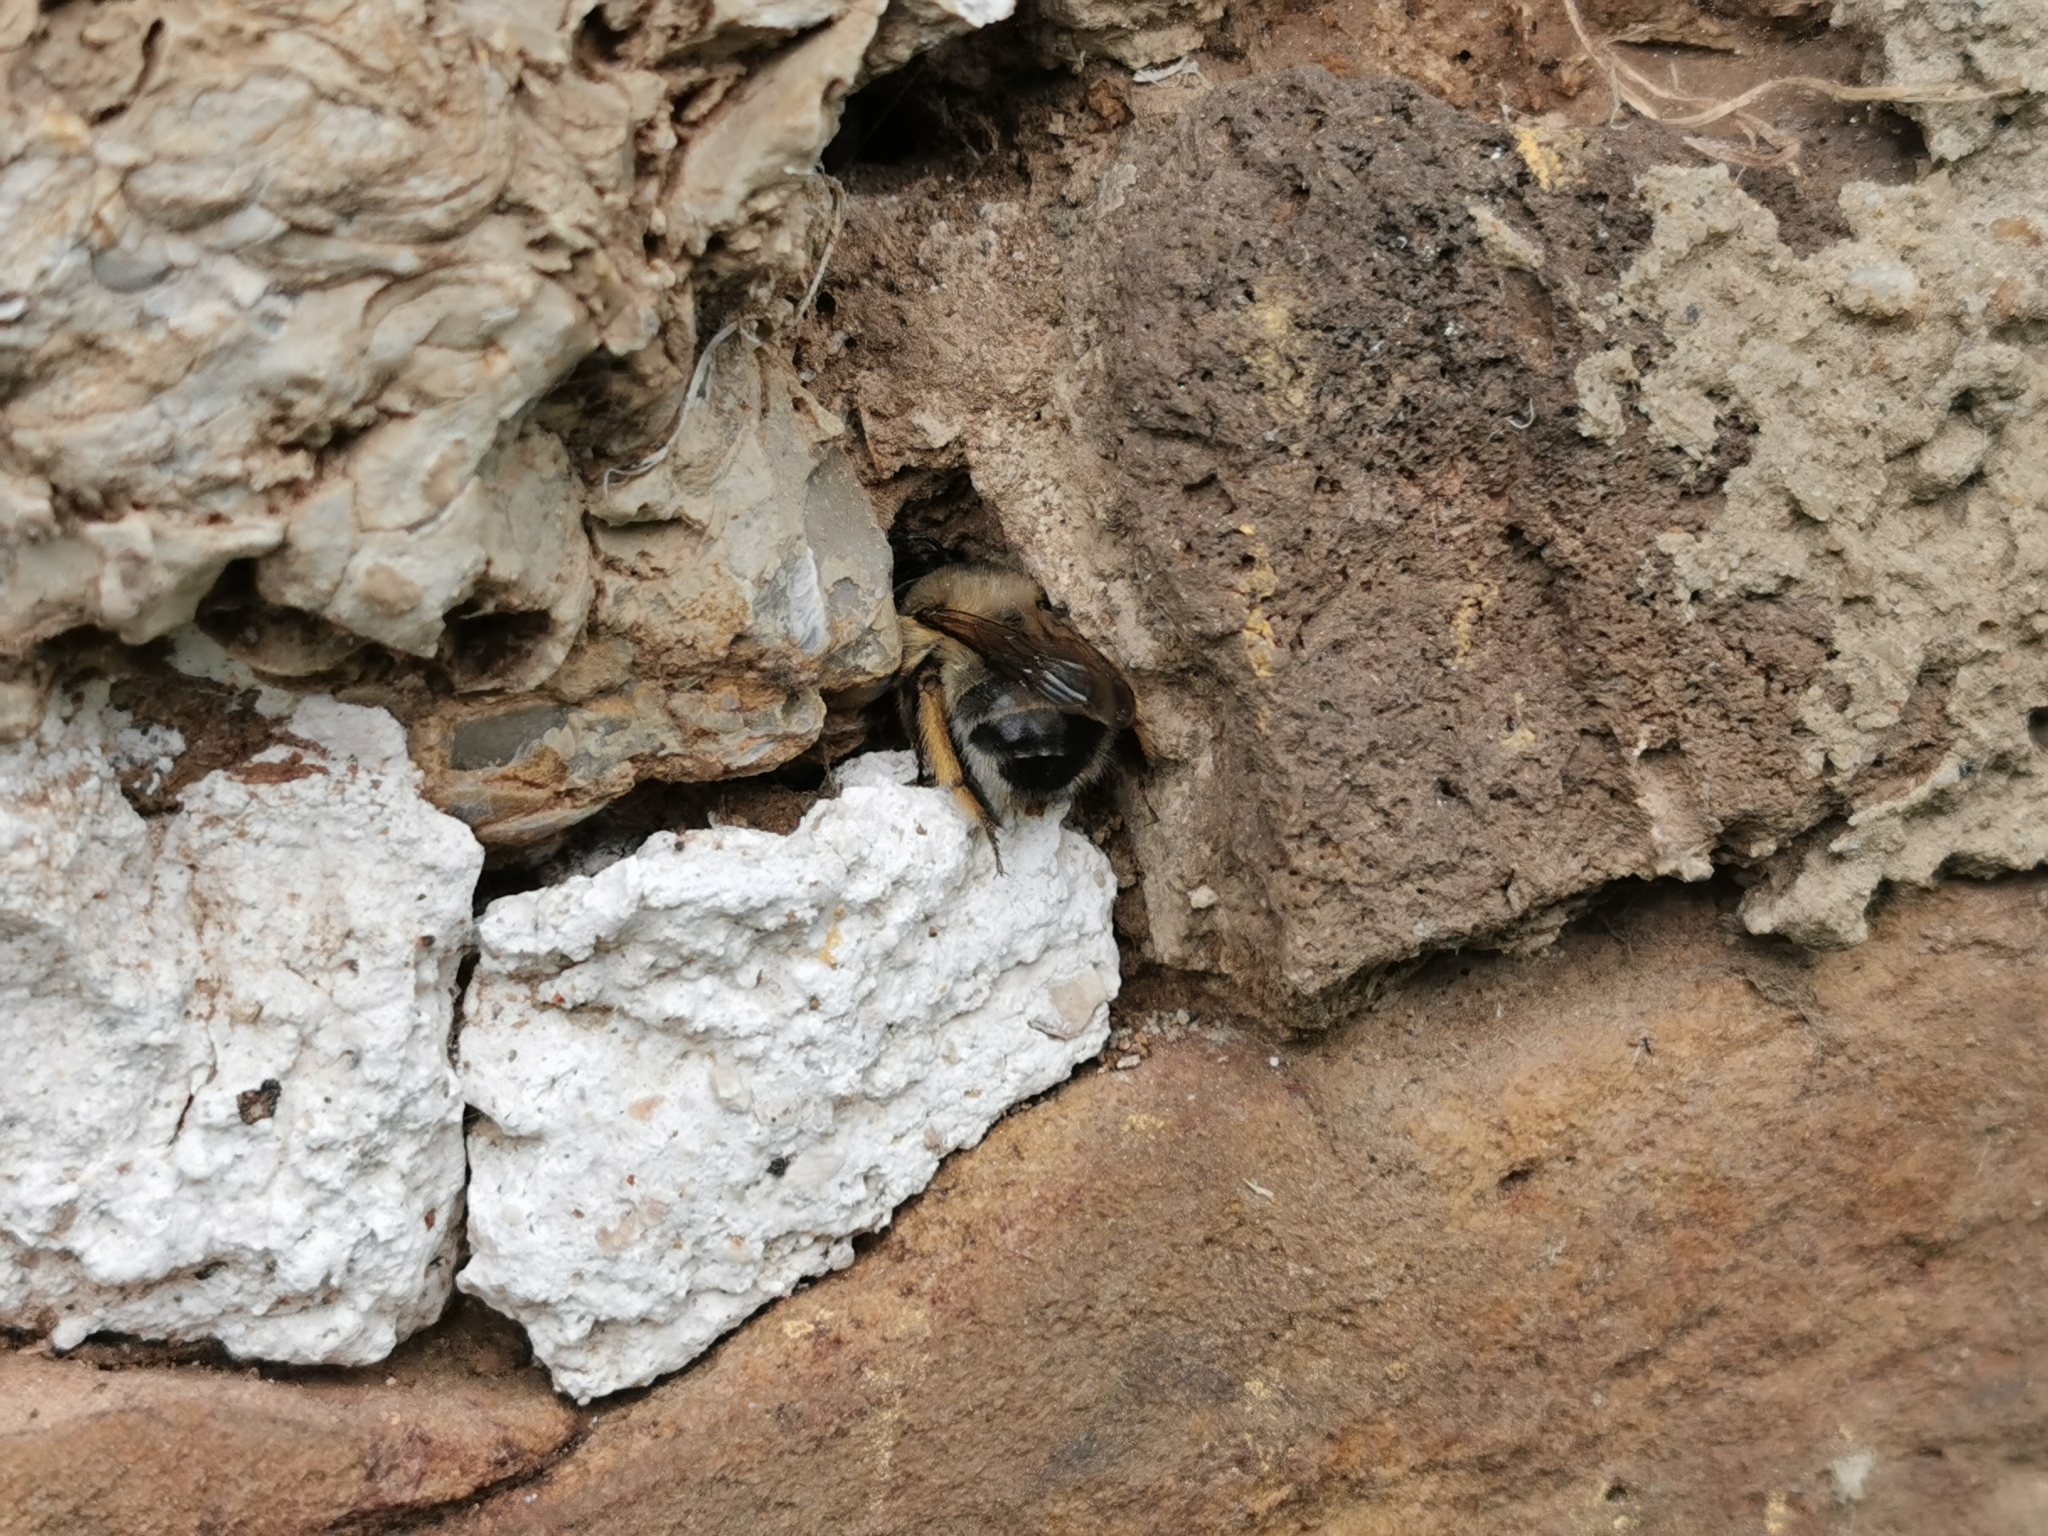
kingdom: Animalia
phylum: Arthropoda
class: Insecta
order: Hymenoptera
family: Apidae
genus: Anthophora
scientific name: Anthophora plumipes
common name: Hairy-footed flower bee
